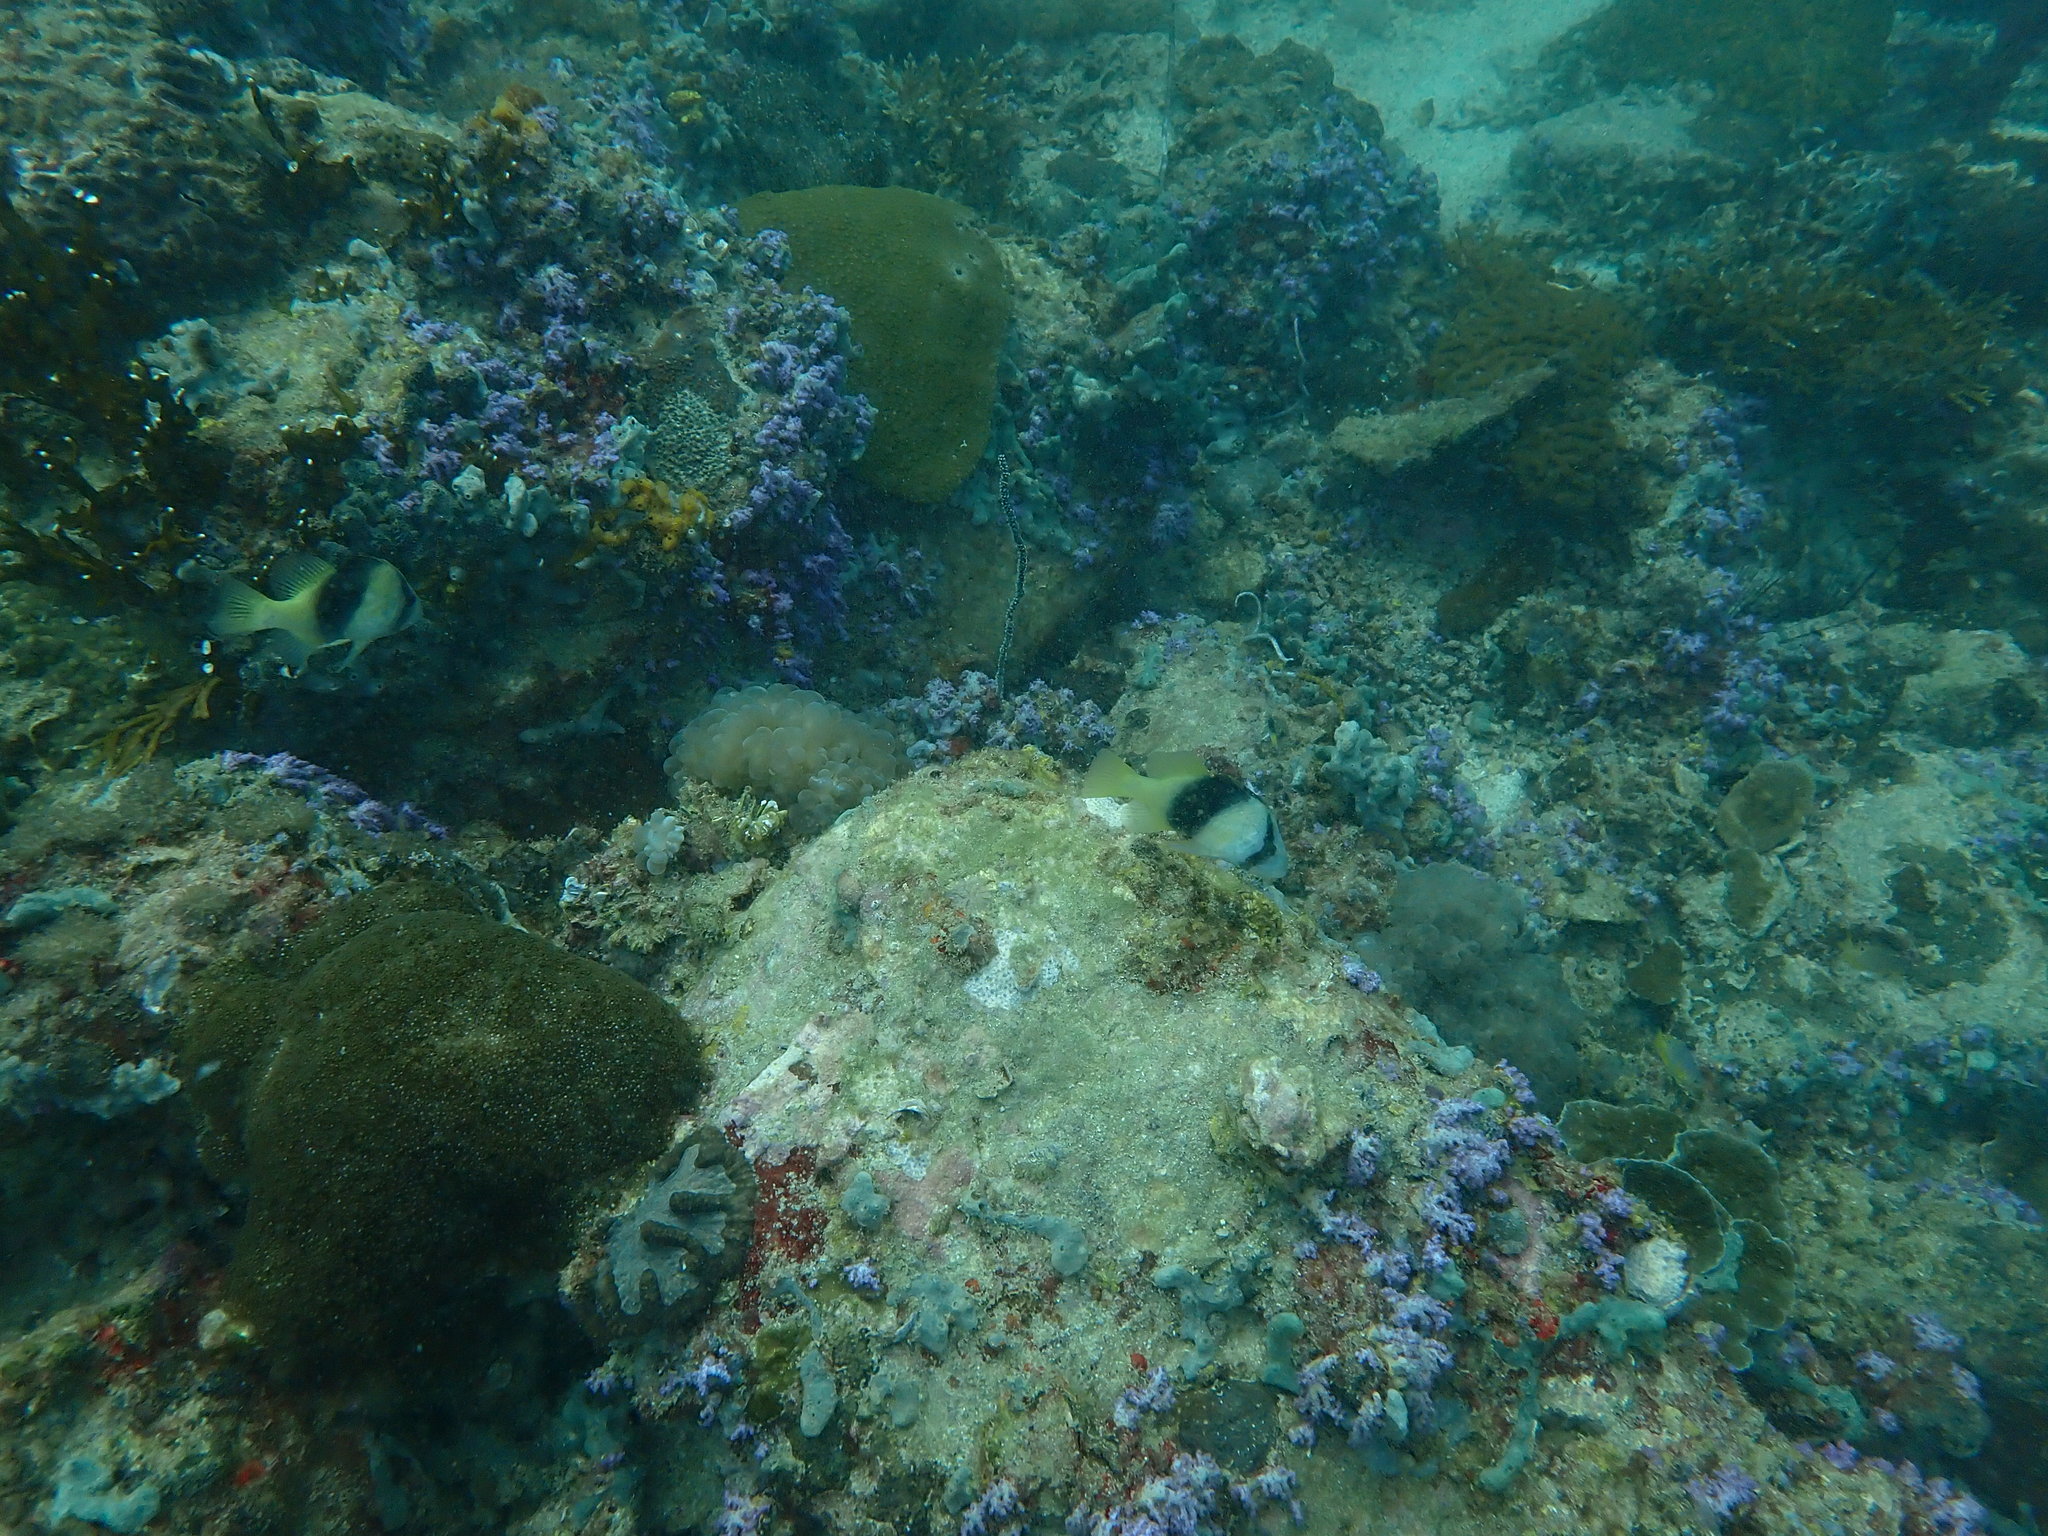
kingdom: Animalia
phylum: Chordata
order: Perciformes
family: Serranidae
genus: Diploprion
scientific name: Diploprion bifasciatum
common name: Barred soapfish
